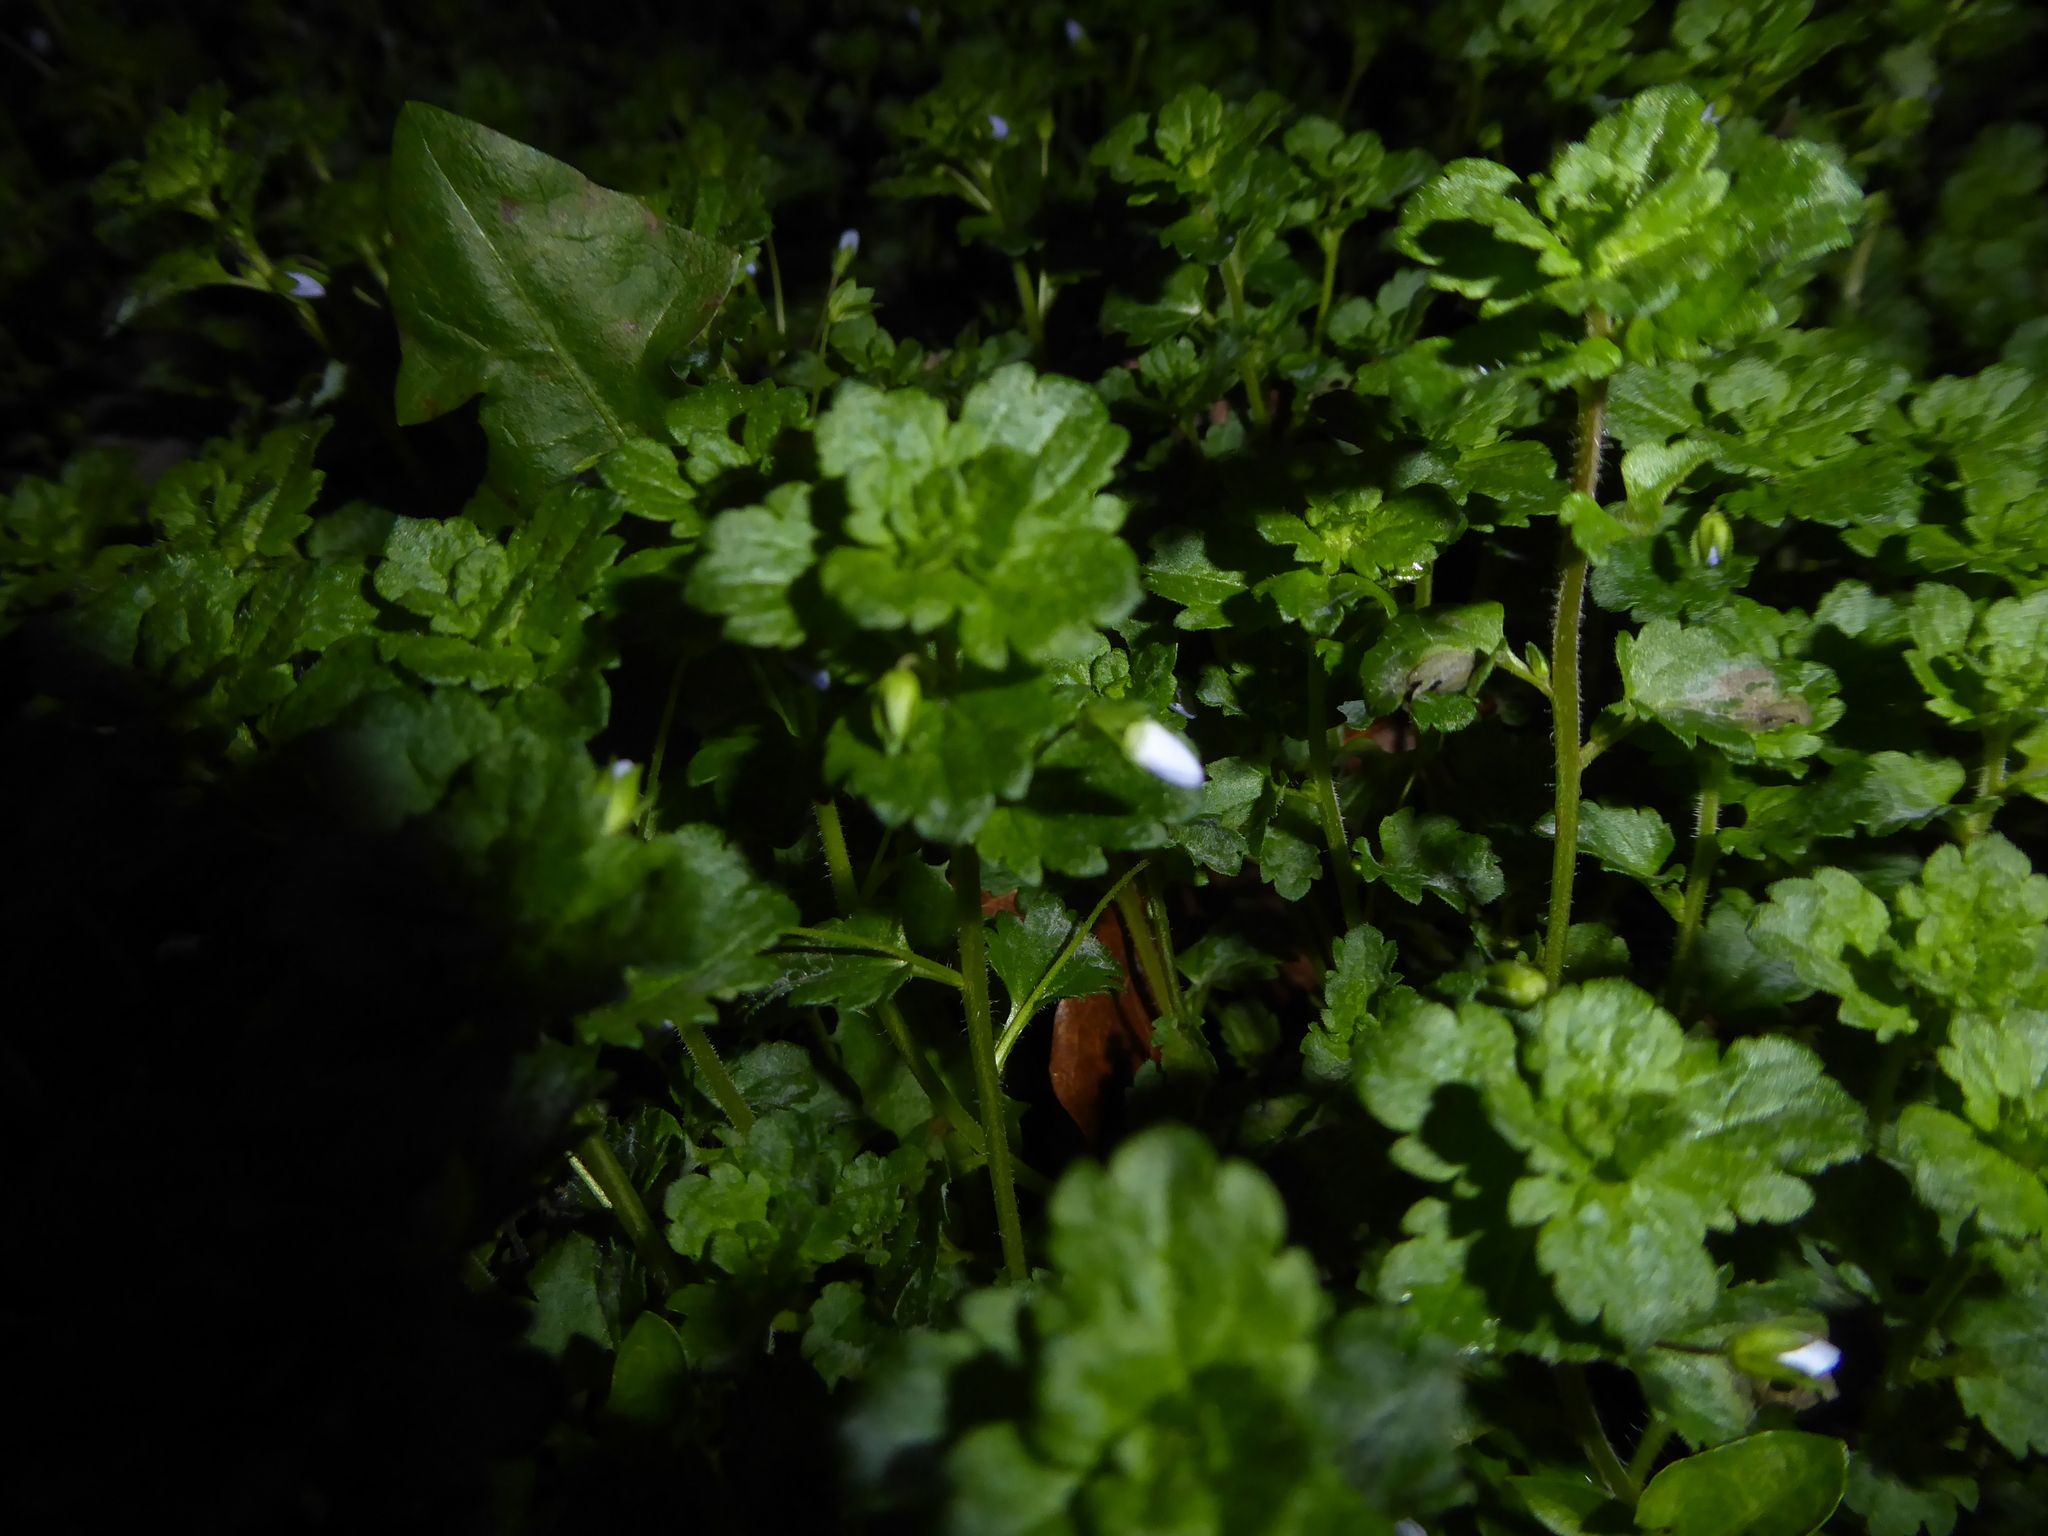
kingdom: Plantae
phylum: Tracheophyta
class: Magnoliopsida
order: Lamiales
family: Plantaginaceae
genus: Veronica
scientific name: Veronica persica
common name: Common field-speedwell
